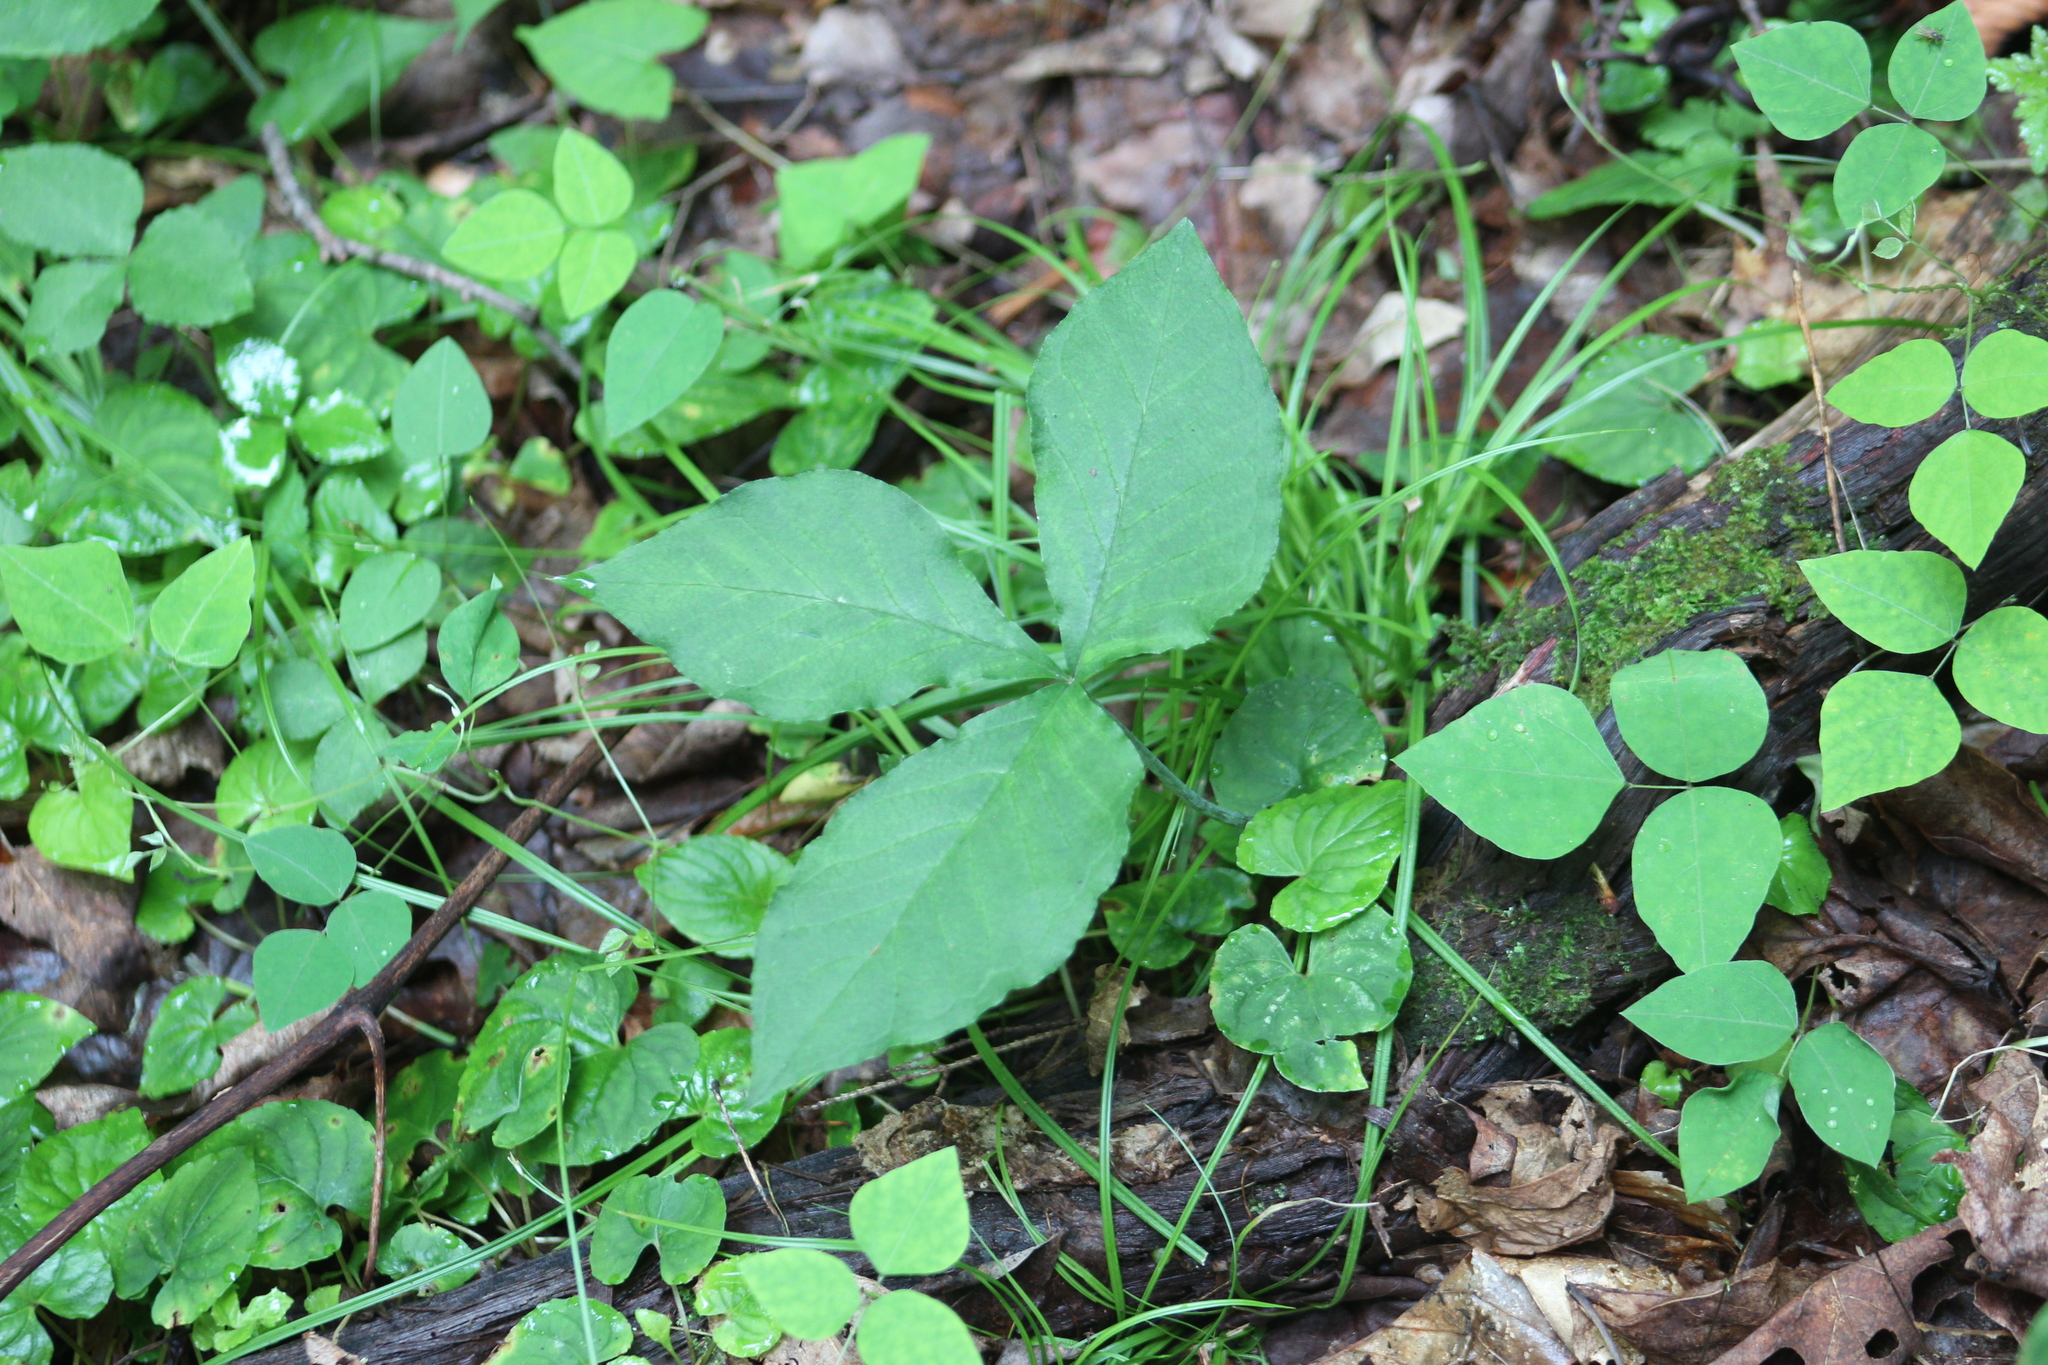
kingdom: Plantae
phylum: Tracheophyta
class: Liliopsida
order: Alismatales
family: Araceae
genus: Arisaema
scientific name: Arisaema triphyllum
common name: Jack-in-the-pulpit
